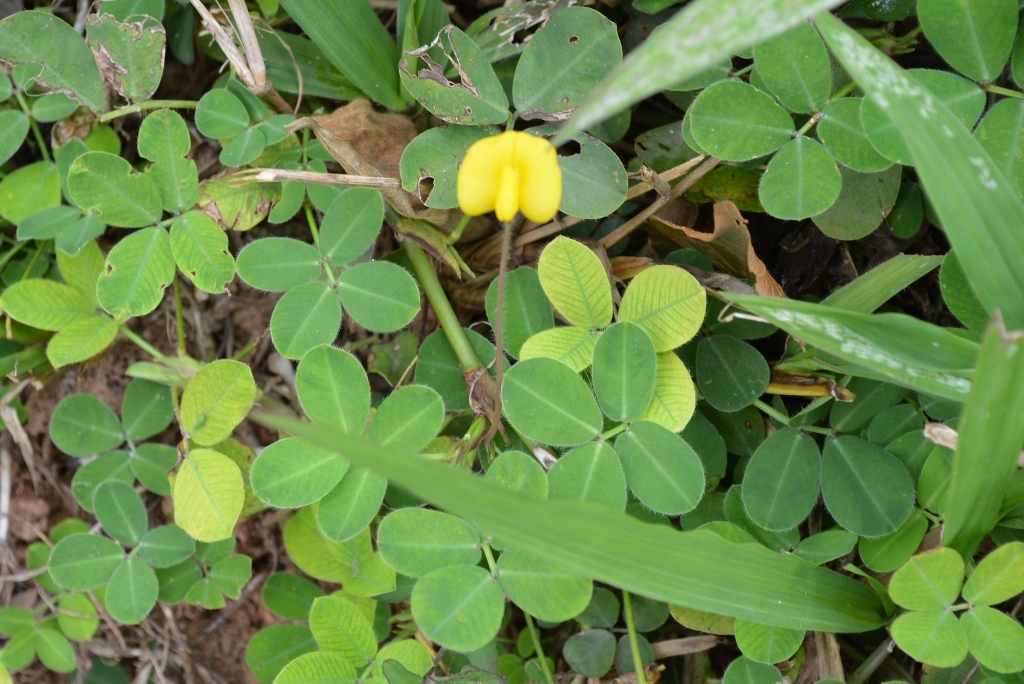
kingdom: Plantae
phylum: Tracheophyta
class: Magnoliopsida
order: Fabales
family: Fabaceae
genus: Arachis
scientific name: Arachis pintoi
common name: Pinto peanut
